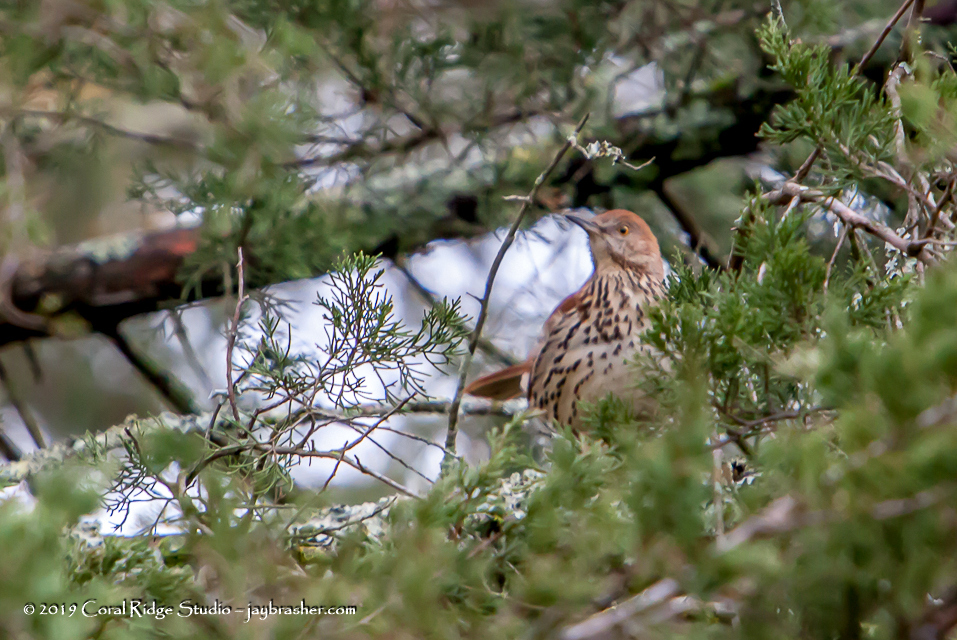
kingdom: Animalia
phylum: Chordata
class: Aves
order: Passeriformes
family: Mimidae
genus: Toxostoma
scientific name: Toxostoma rufum
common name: Brown thrasher
